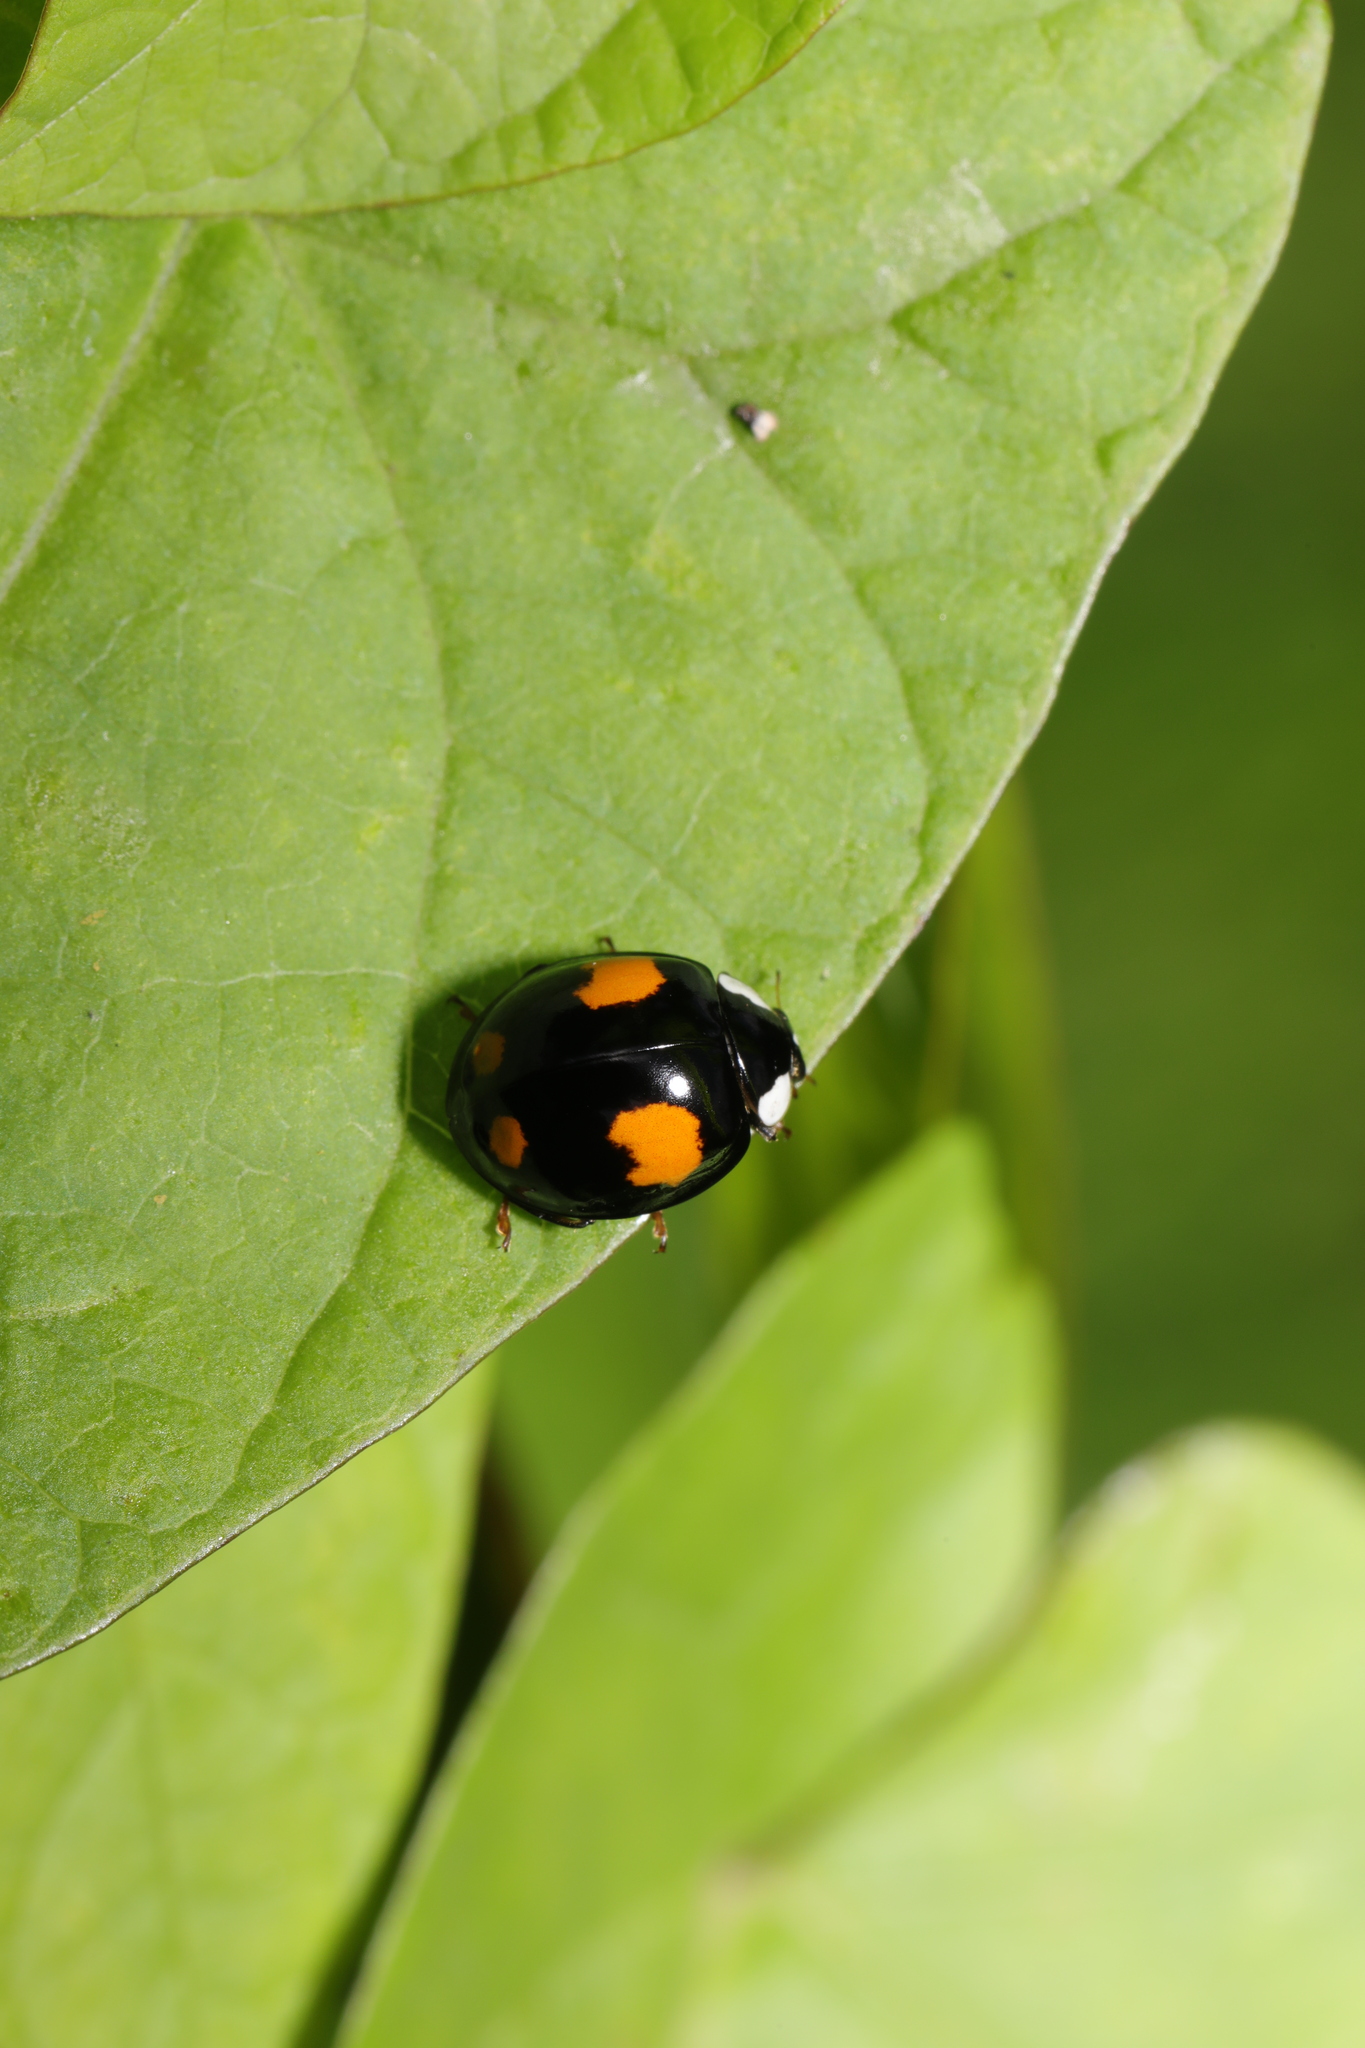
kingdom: Animalia
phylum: Arthropoda
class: Insecta
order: Coleoptera
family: Coccinellidae
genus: Harmonia
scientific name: Harmonia axyridis
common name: Harlequin ladybird
